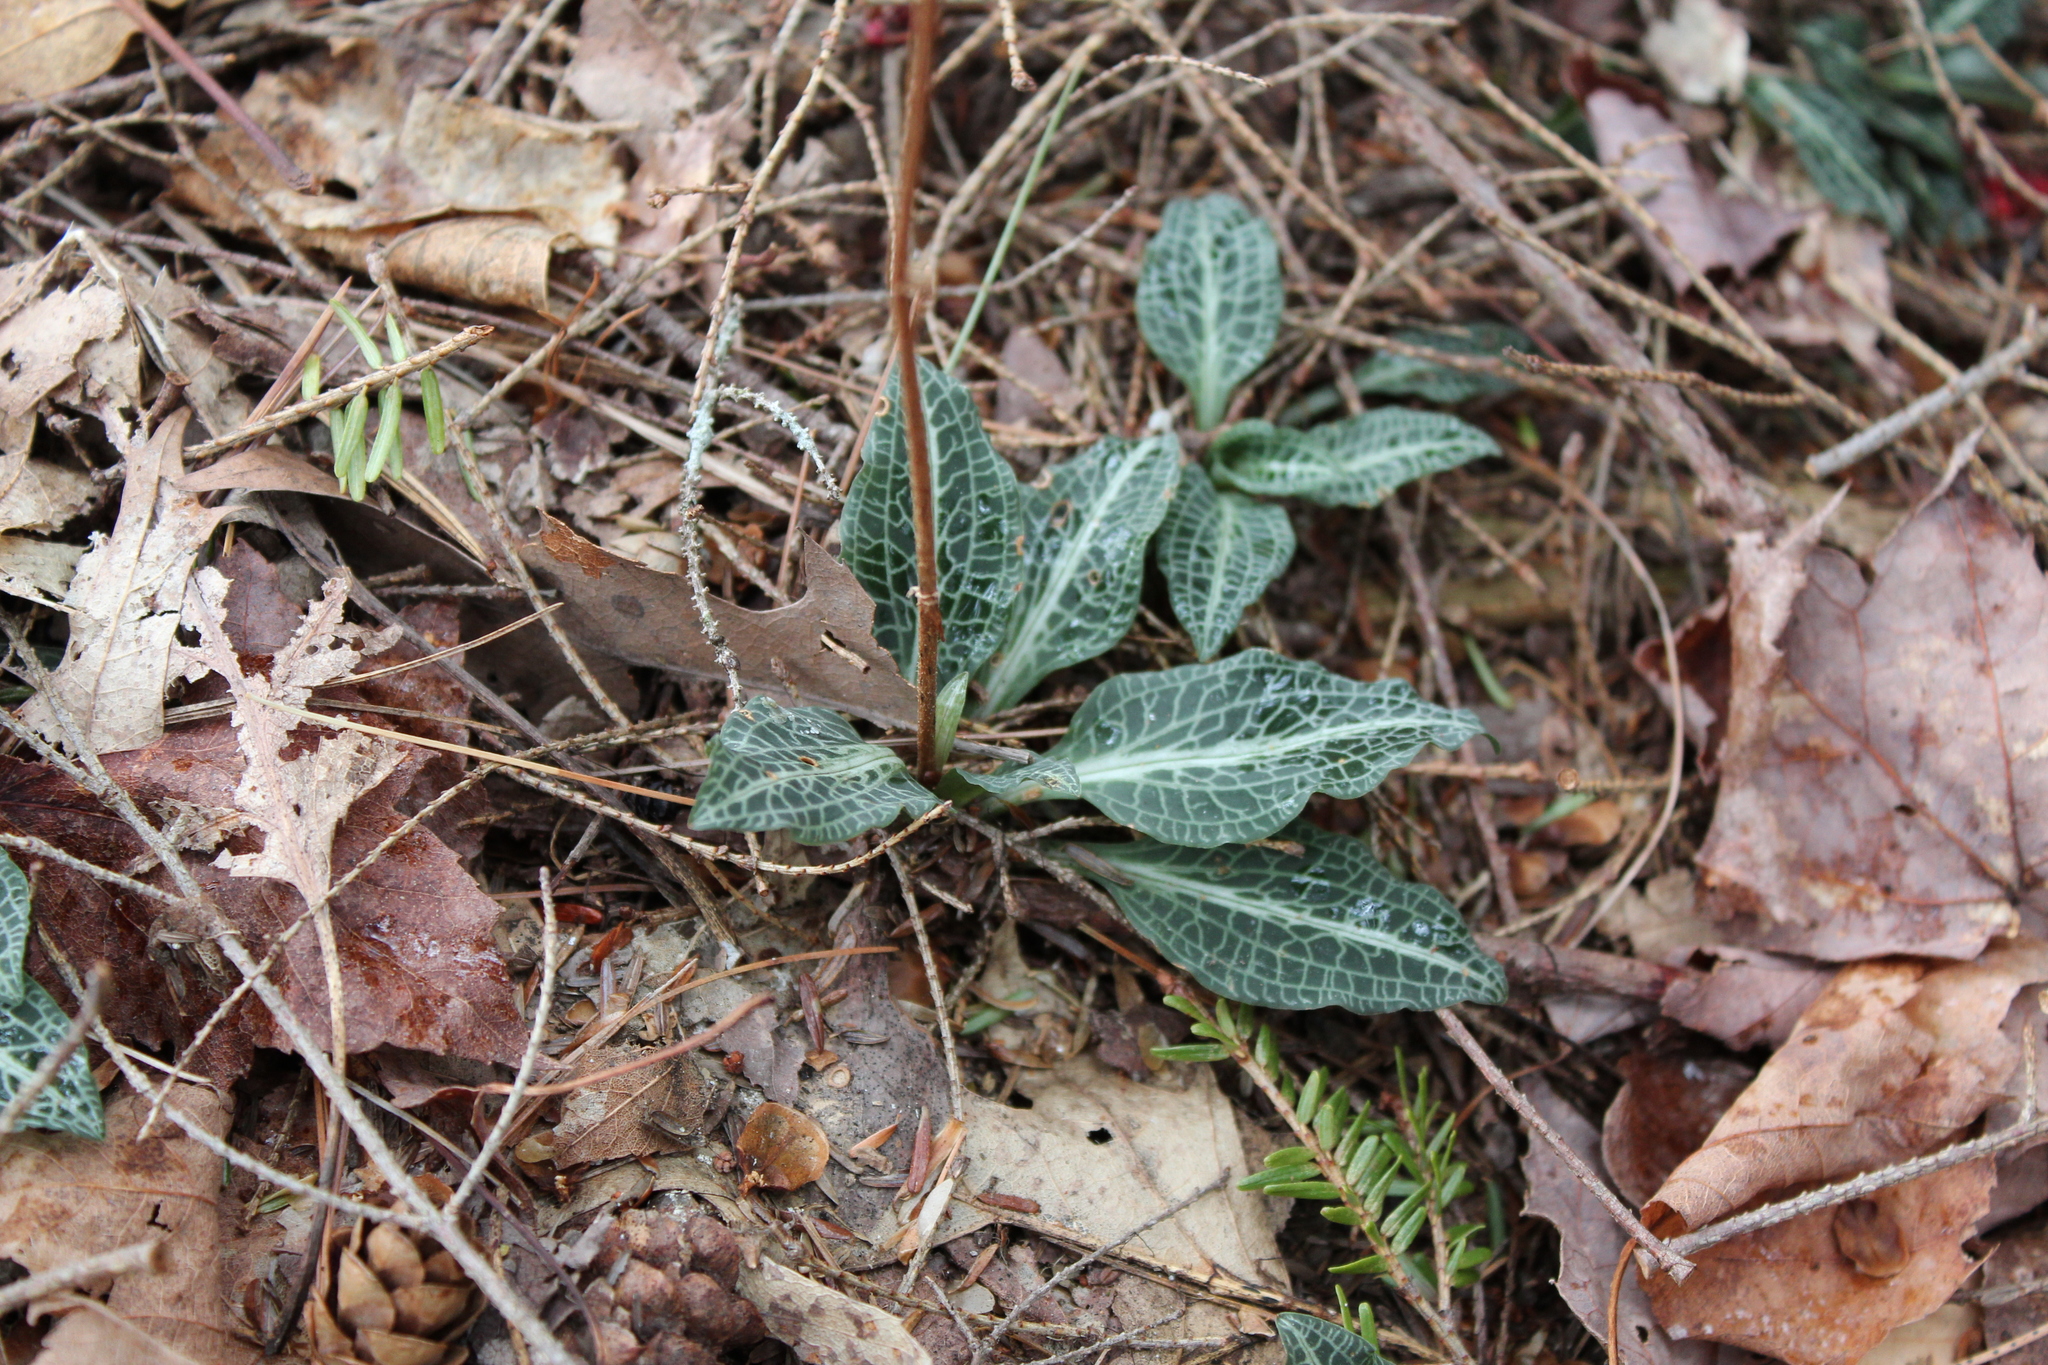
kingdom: Plantae
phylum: Tracheophyta
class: Liliopsida
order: Asparagales
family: Orchidaceae
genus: Goodyera
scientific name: Goodyera pubescens
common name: Downy rattlesnake-plantain
